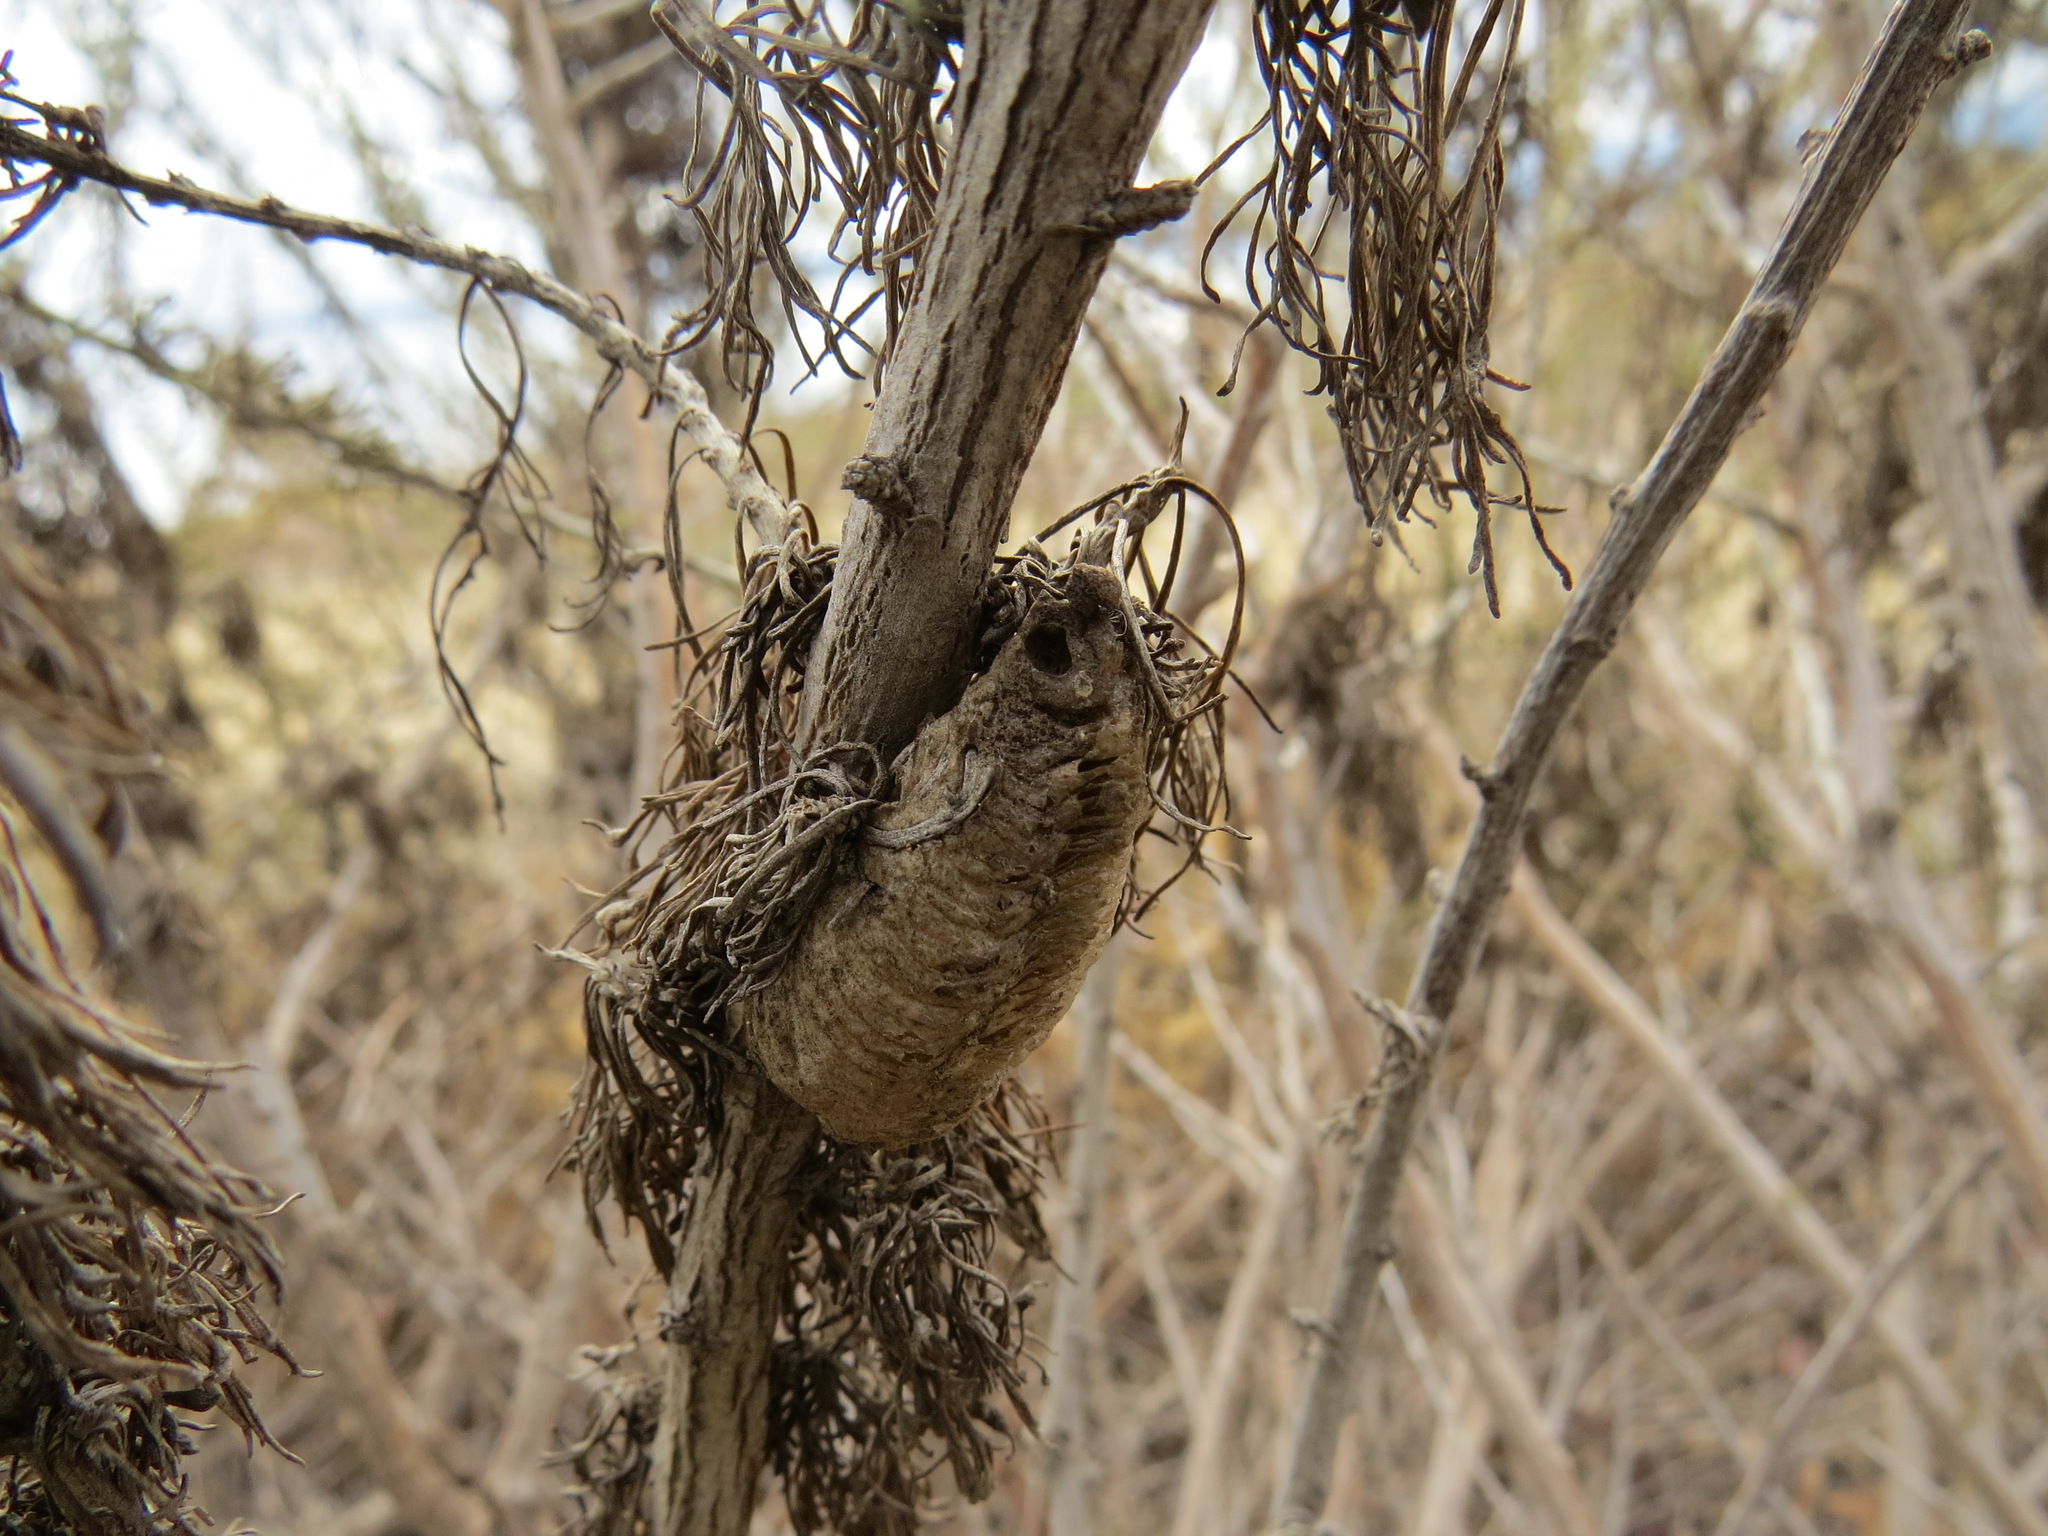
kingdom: Animalia
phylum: Arthropoda
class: Insecta
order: Mantodea
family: Mantidae
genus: Mantis
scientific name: Mantis religiosa
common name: Praying mantis
